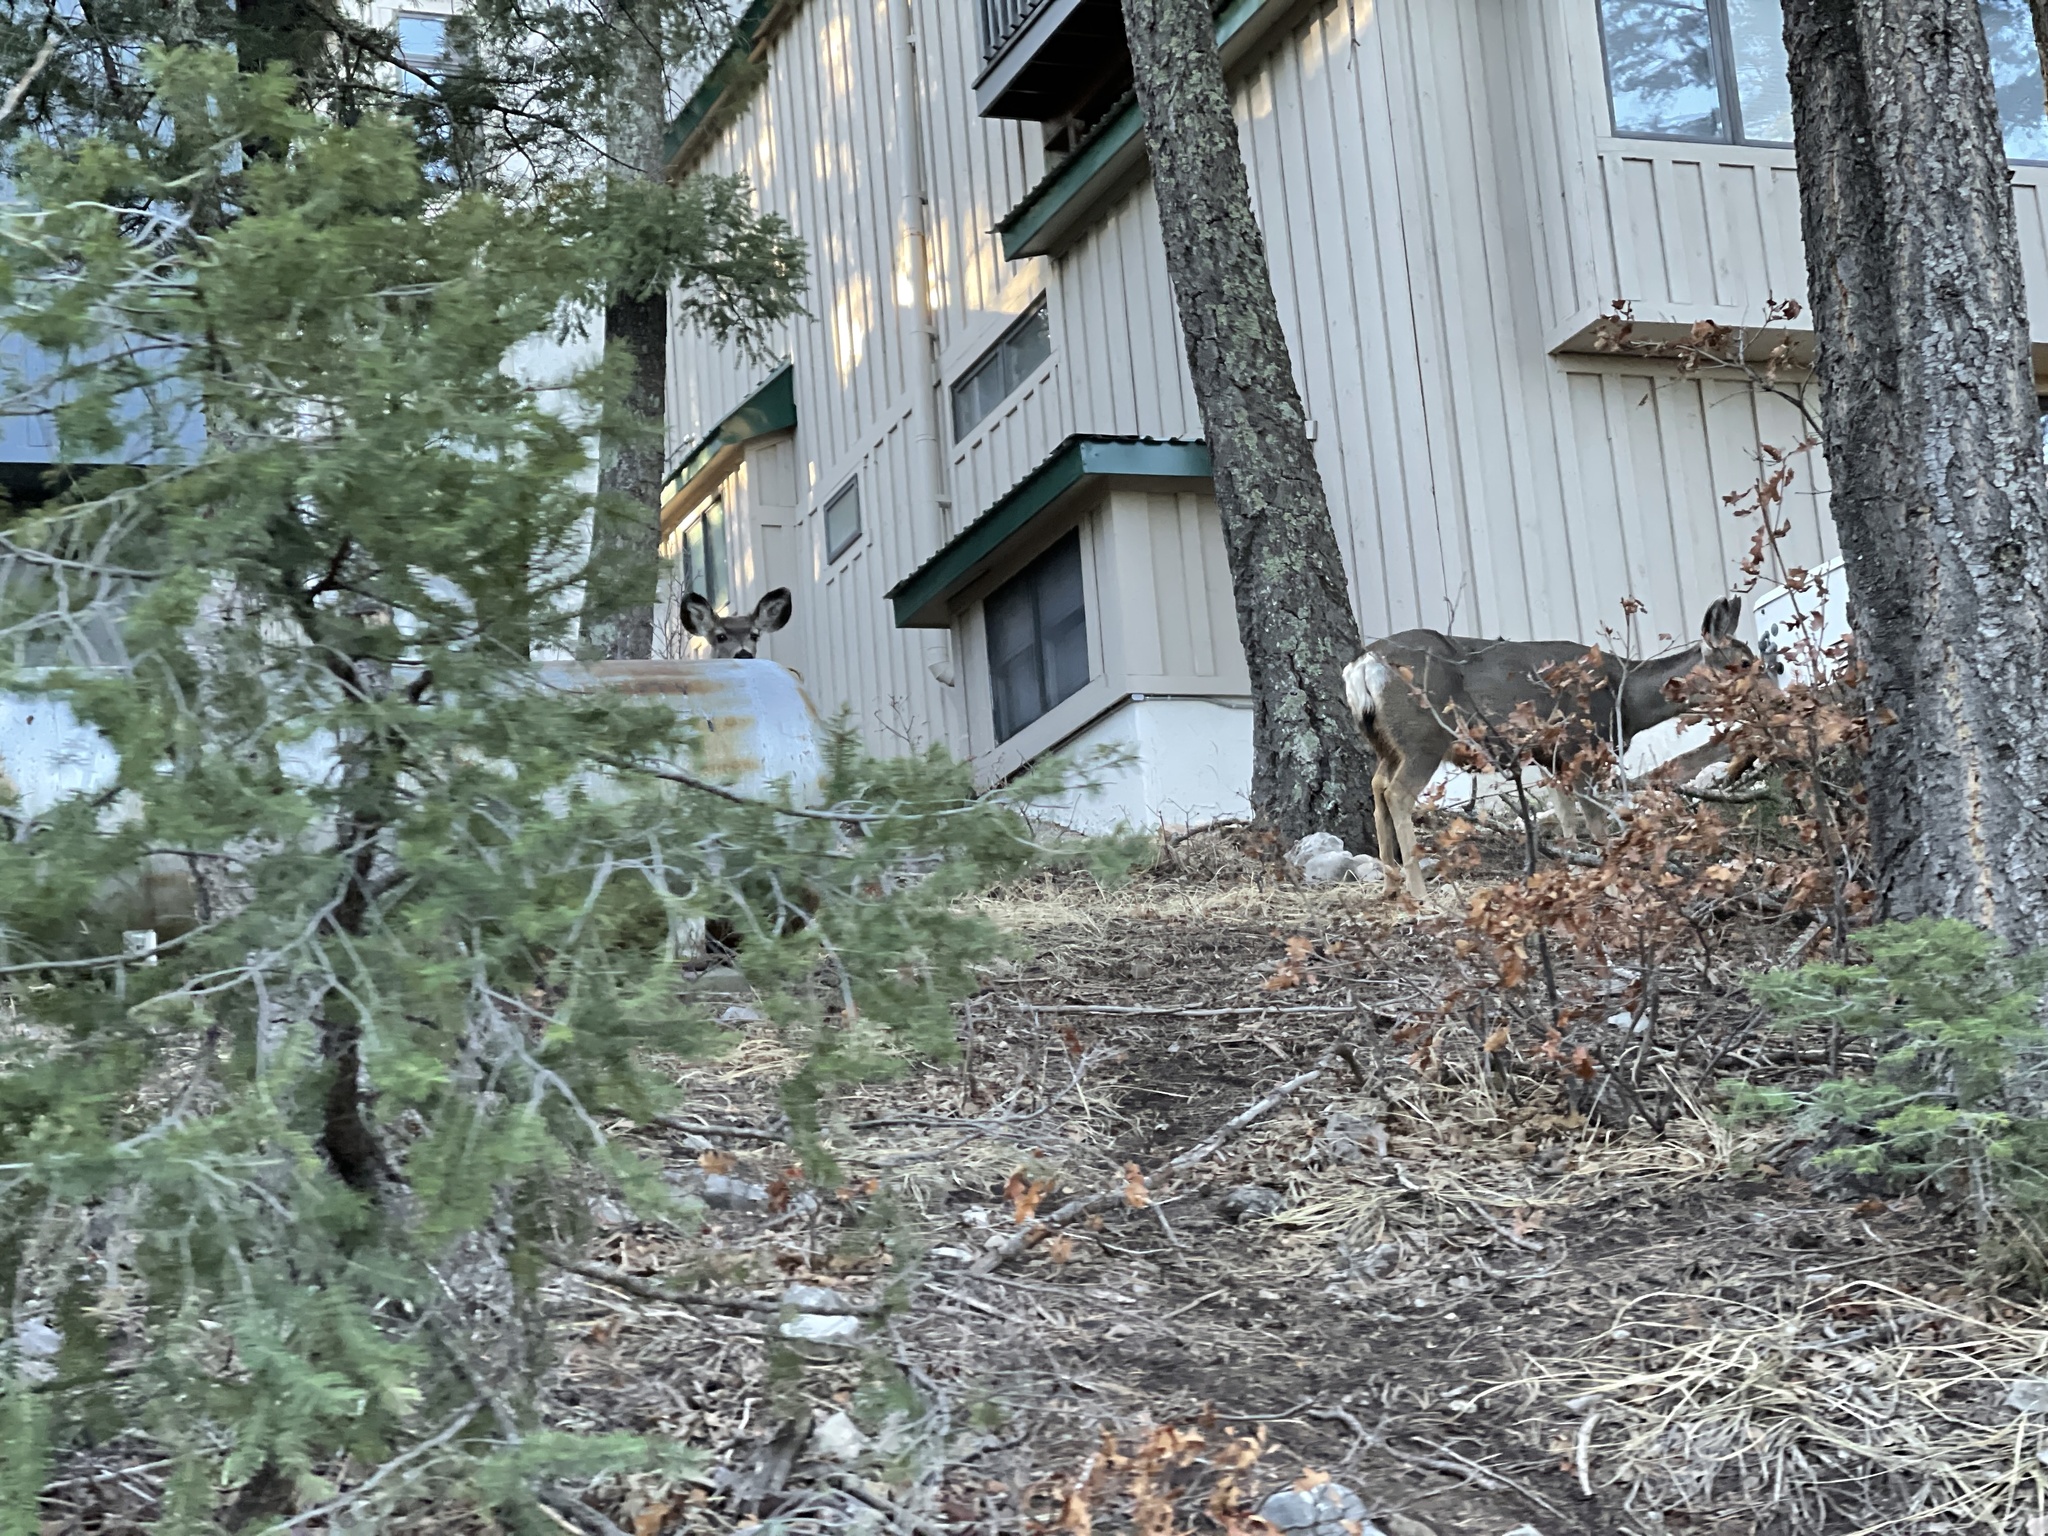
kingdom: Animalia
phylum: Chordata
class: Mammalia
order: Artiodactyla
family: Cervidae
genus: Odocoileus
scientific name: Odocoileus hemionus
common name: Mule deer
